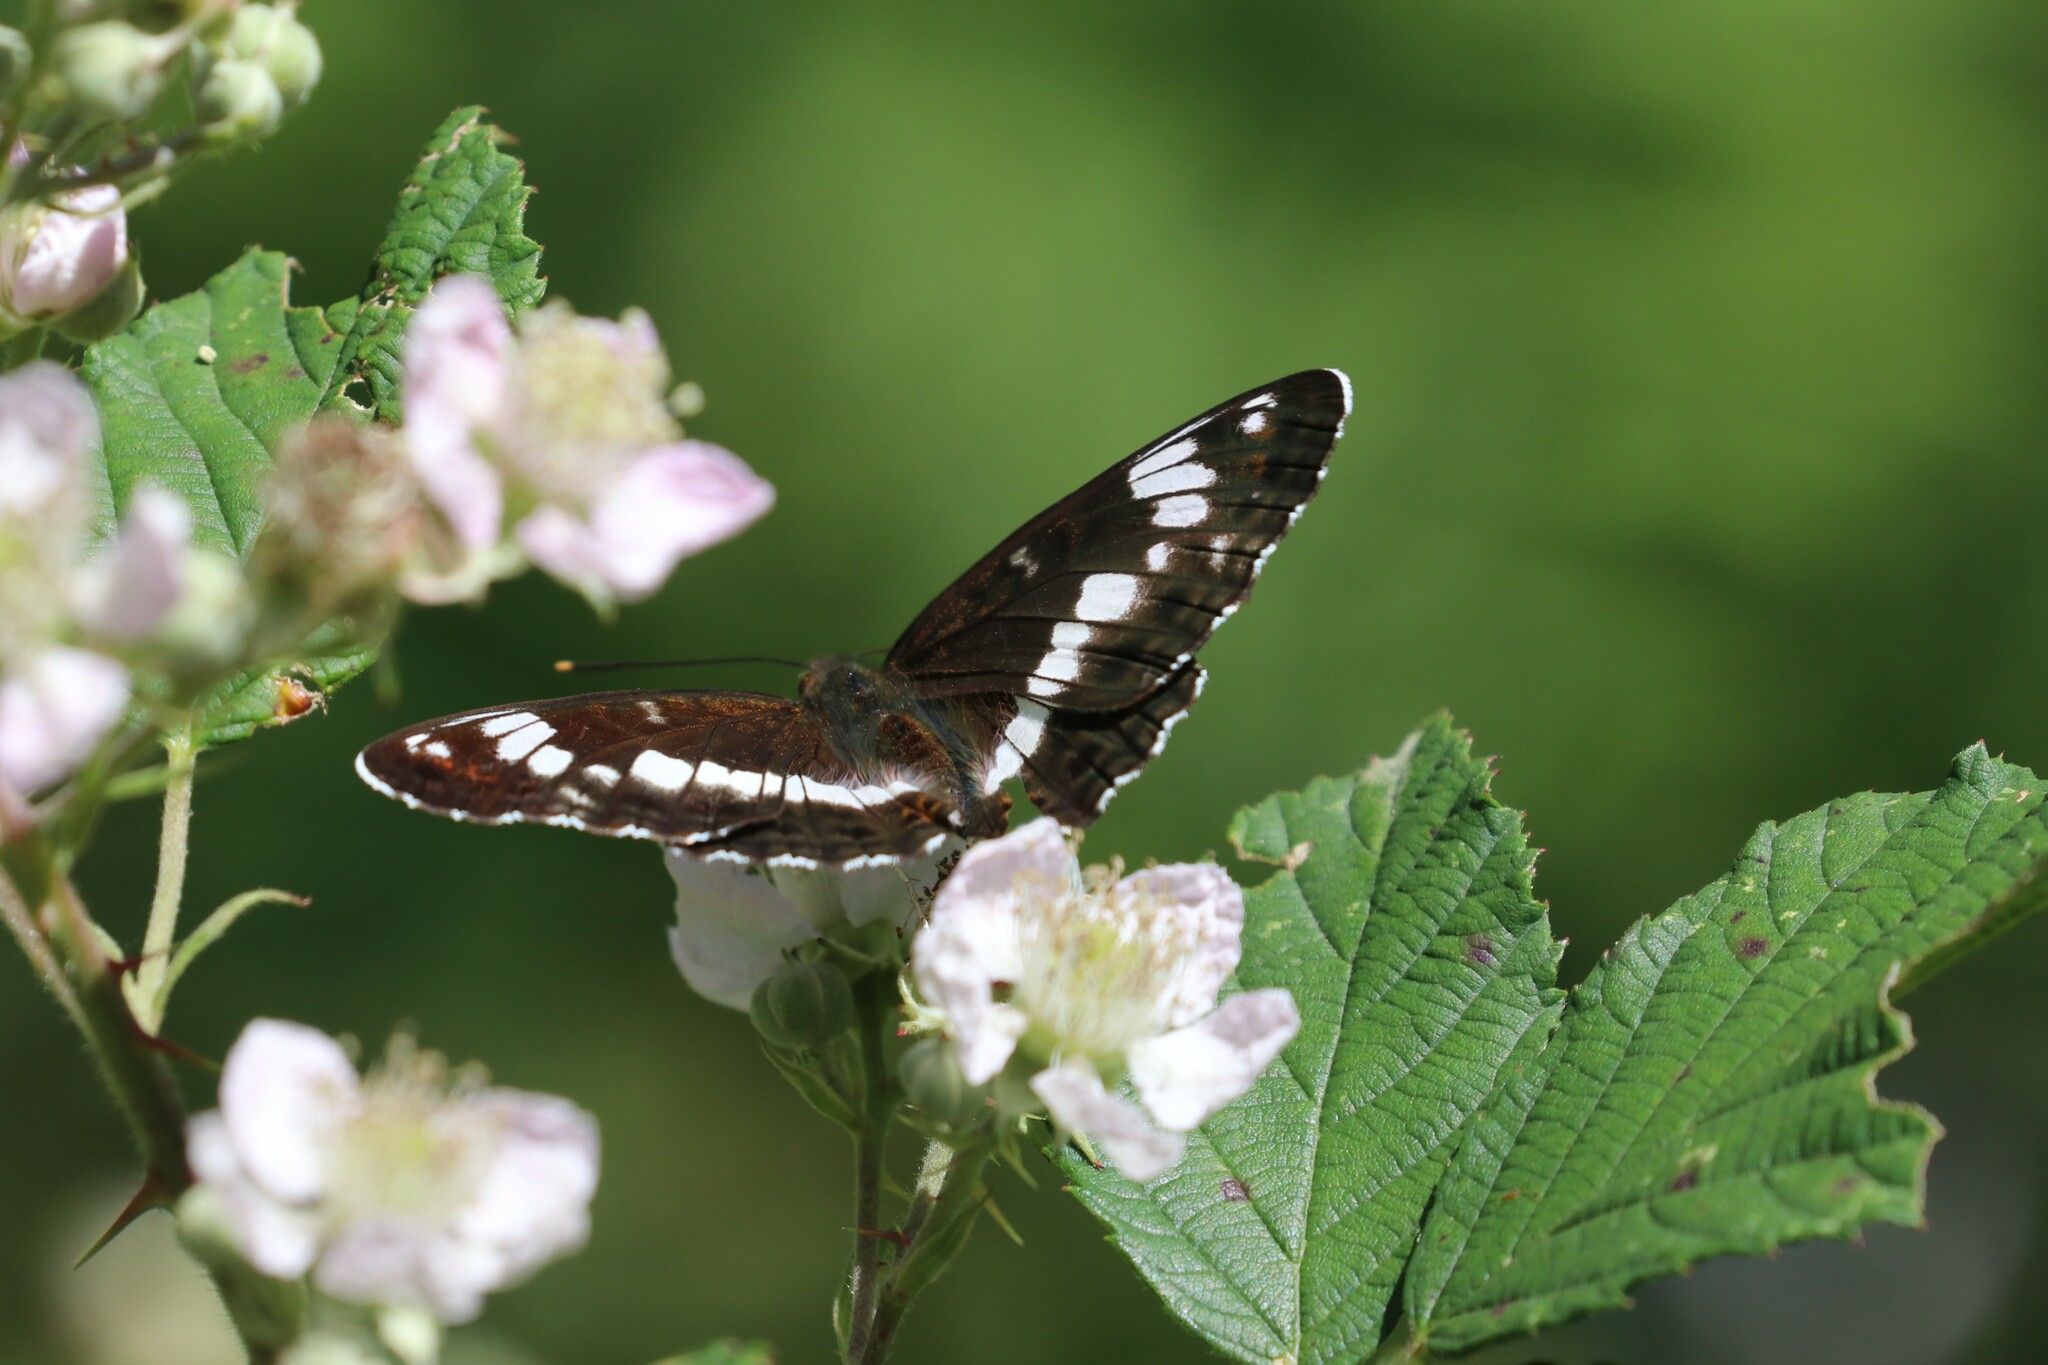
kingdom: Animalia
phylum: Arthropoda
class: Insecta
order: Lepidoptera
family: Nymphalidae
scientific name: Nymphalidae
